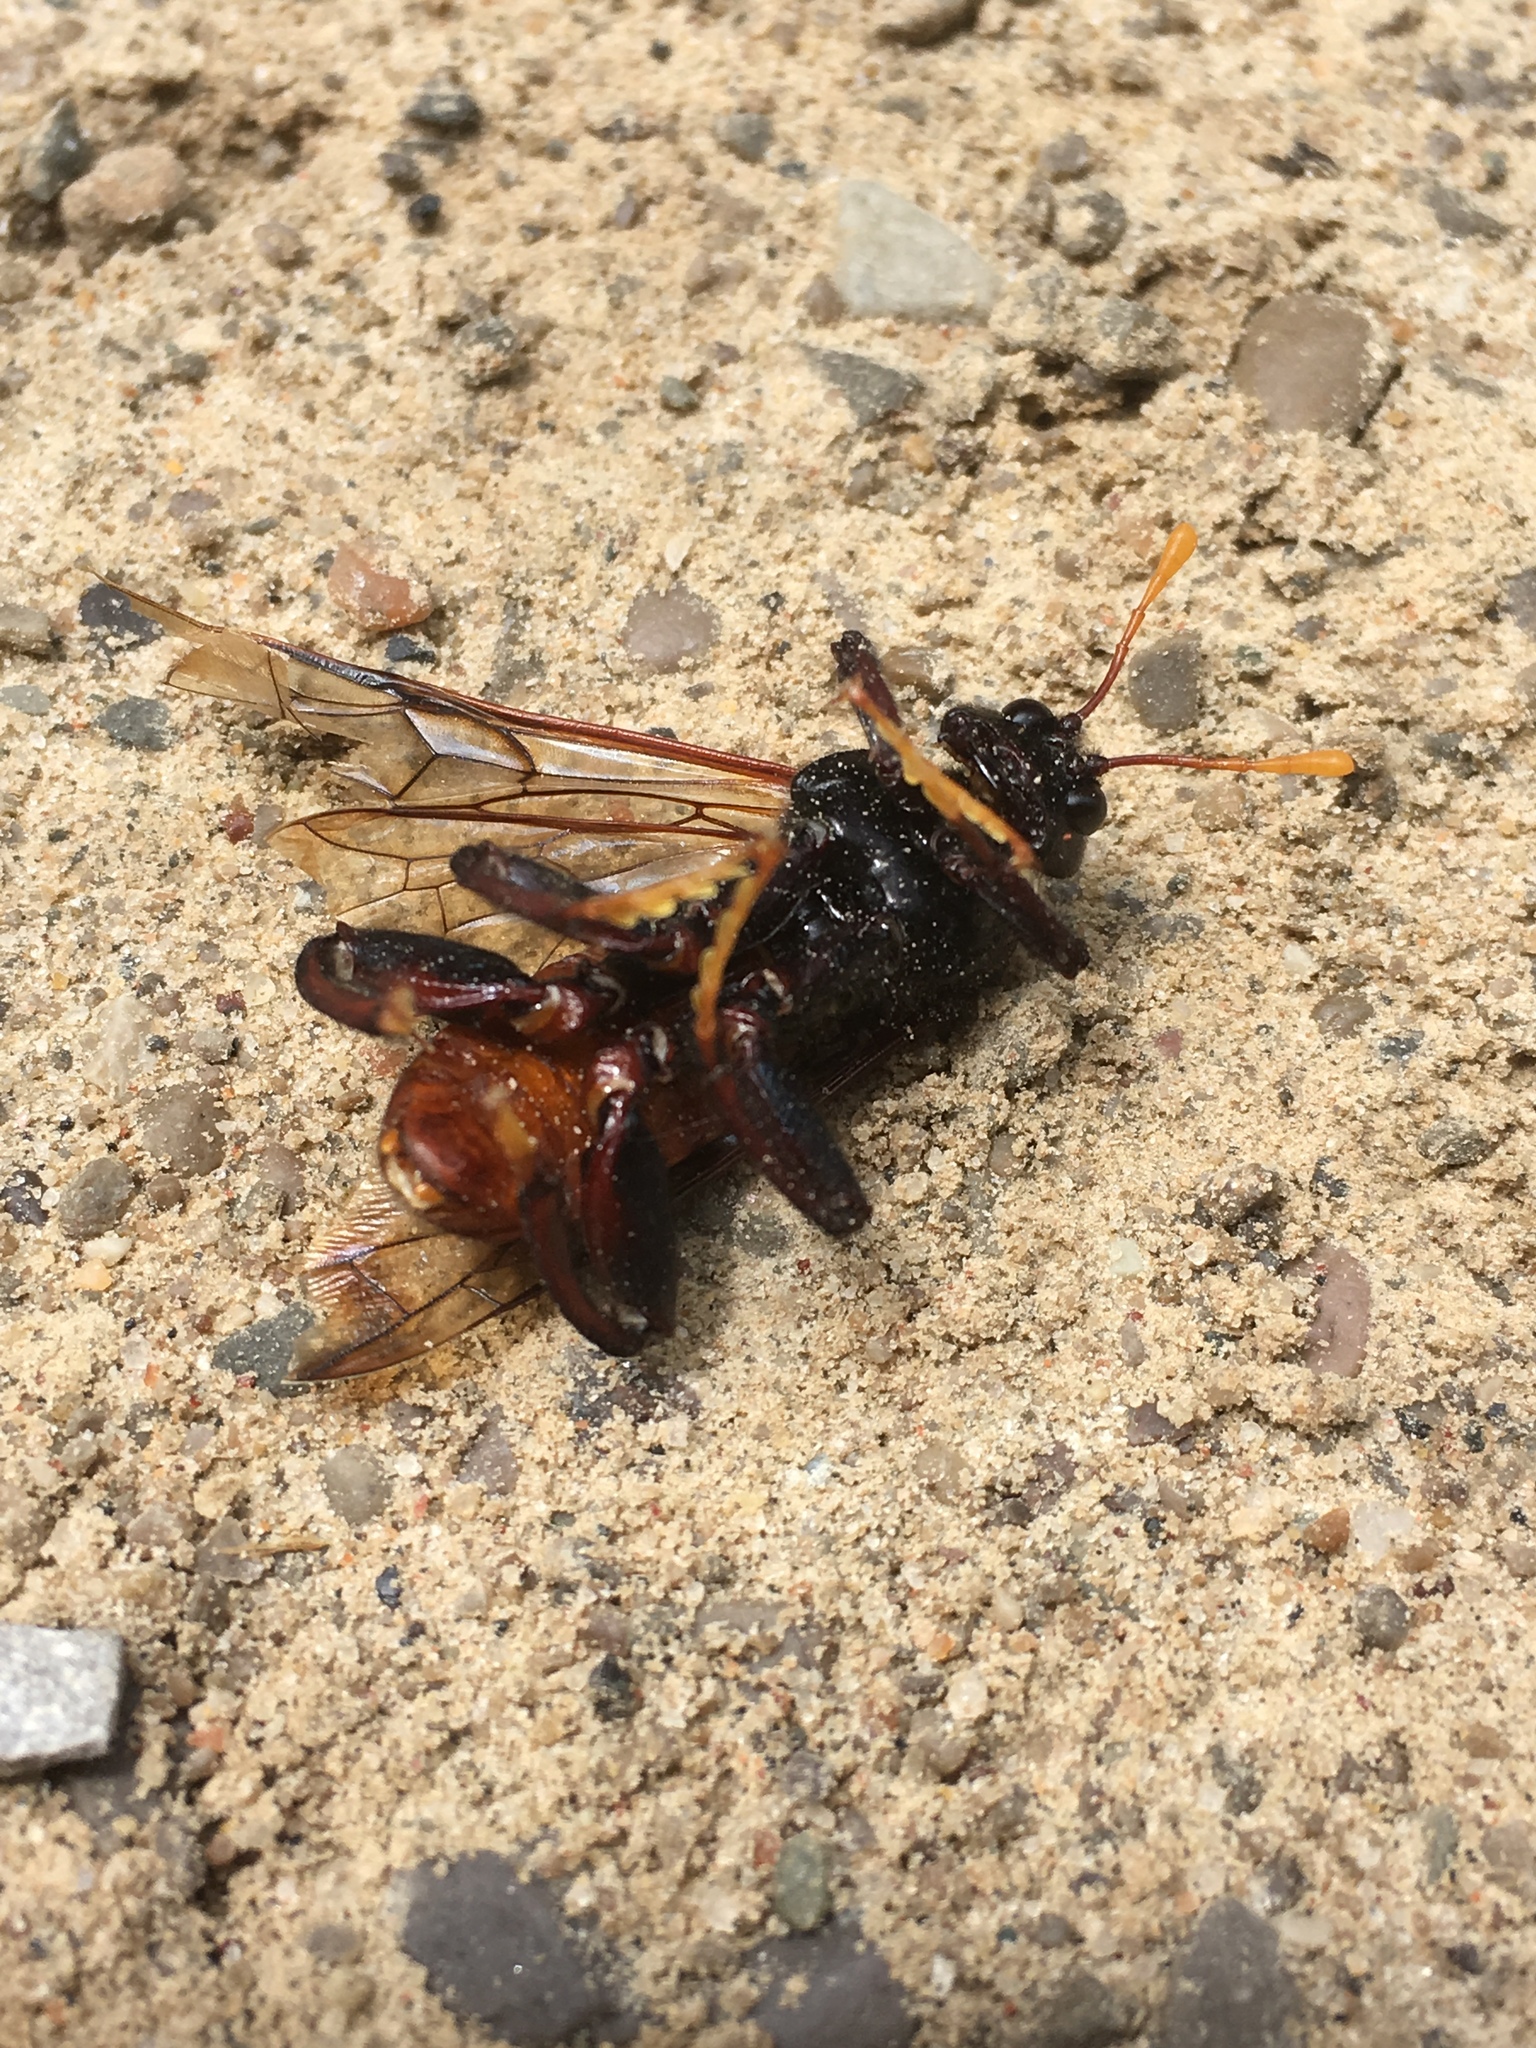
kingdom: Animalia
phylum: Arthropoda
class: Insecta
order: Hymenoptera
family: Cimbicidae
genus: Cimbex
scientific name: Cimbex americana
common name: Elm sawfly
